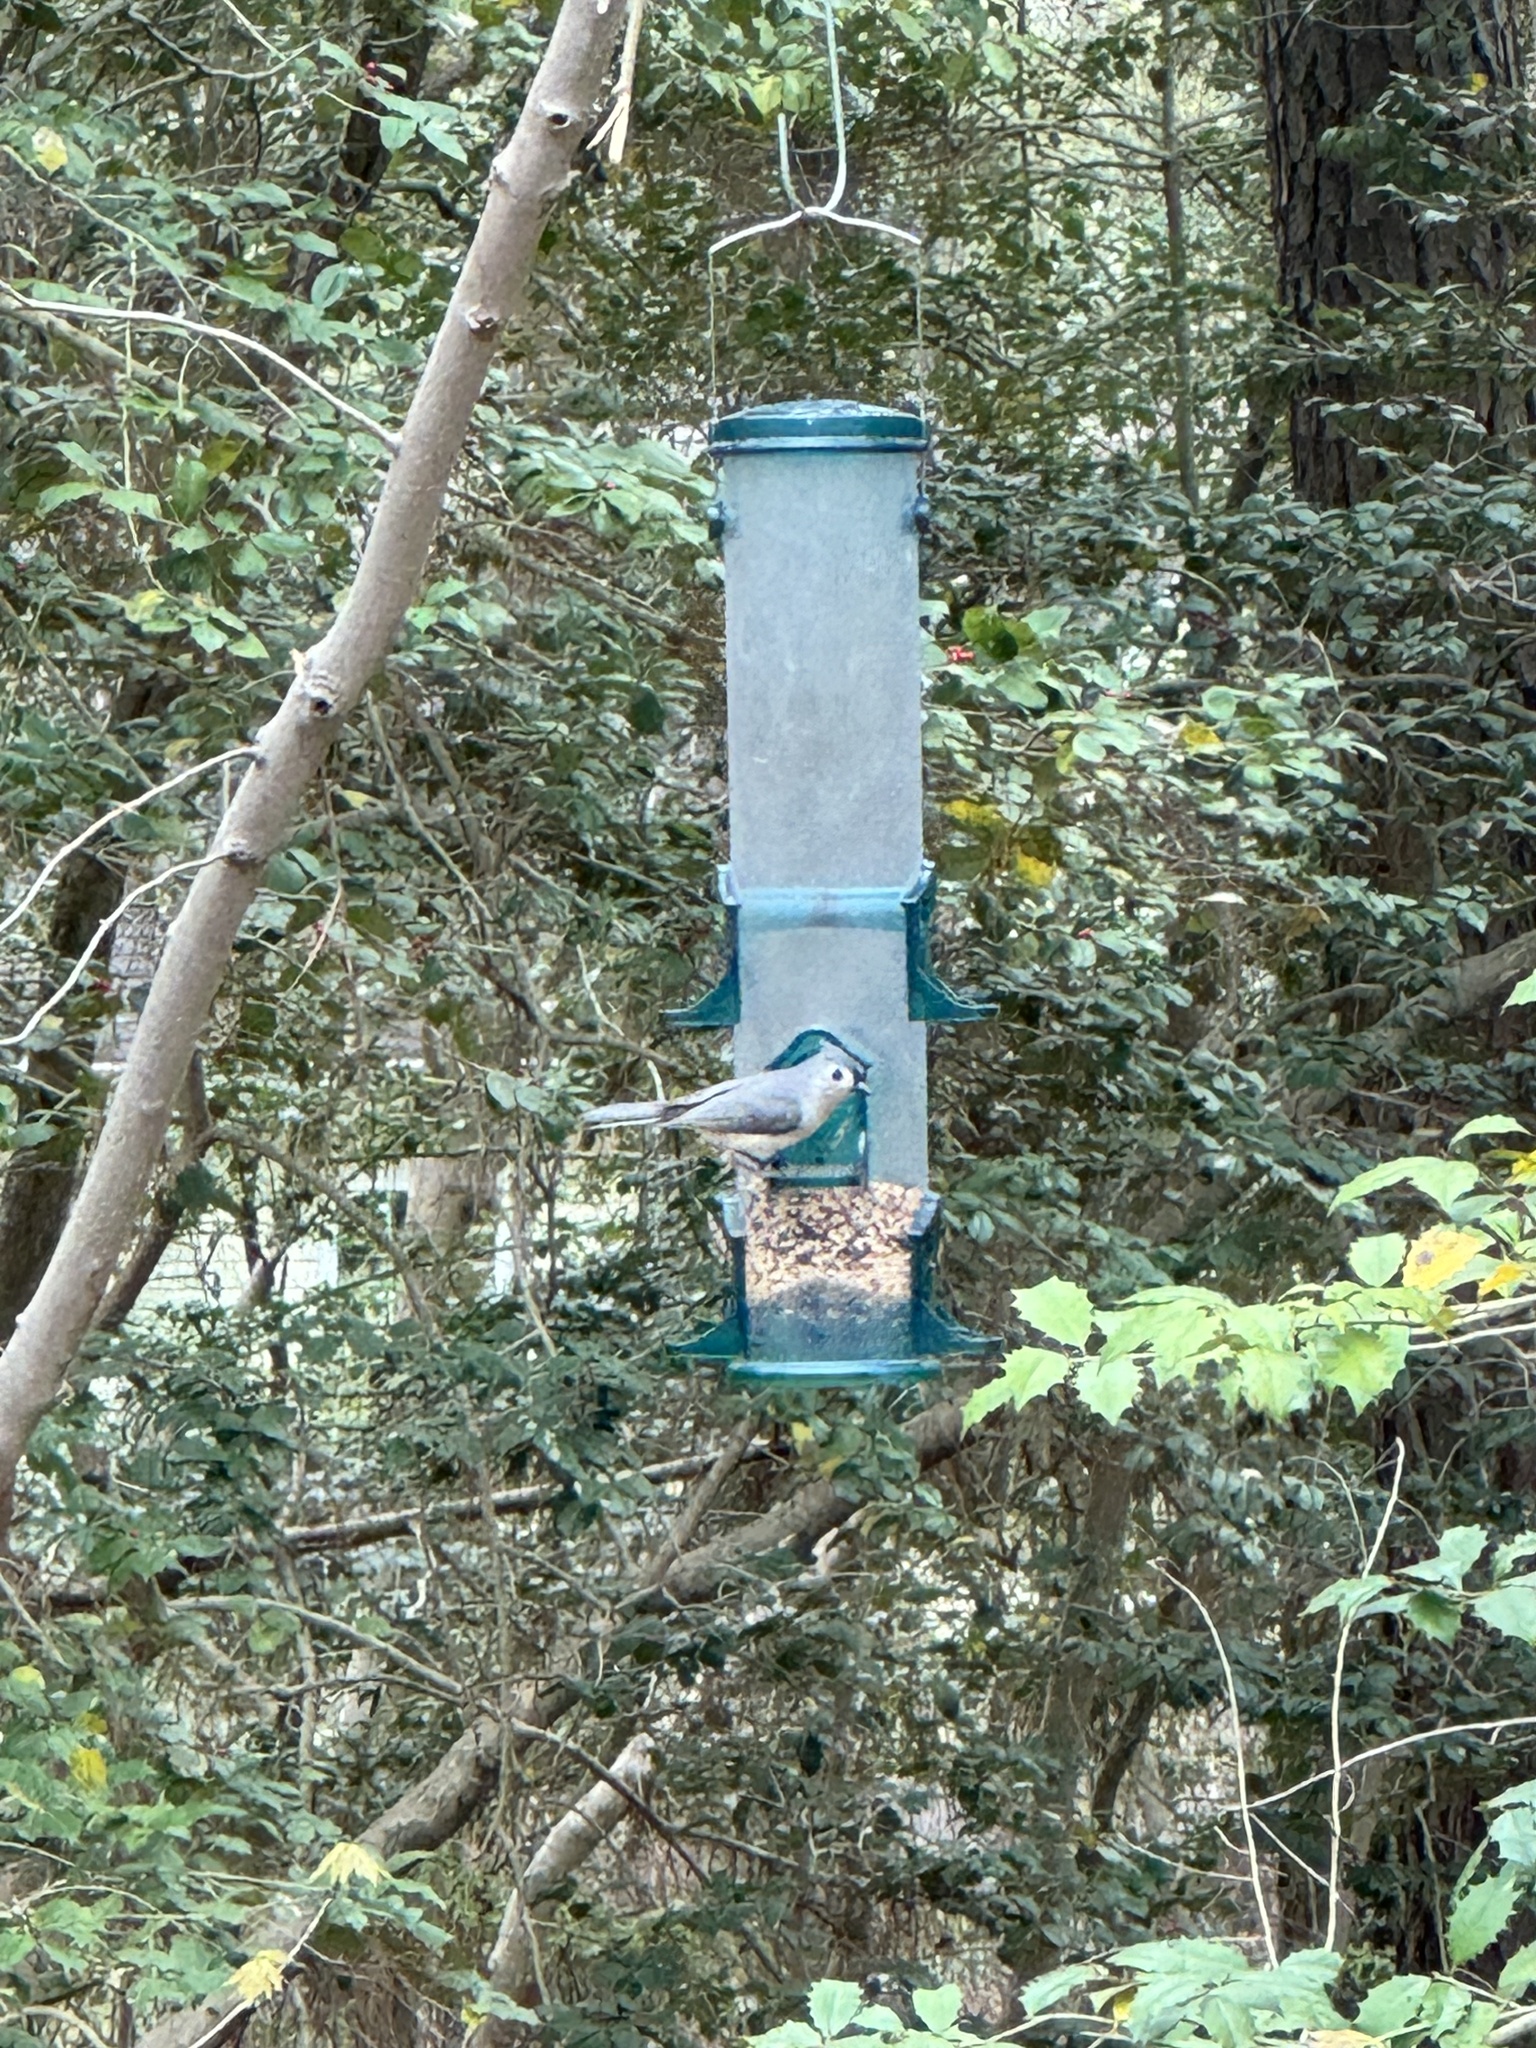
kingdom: Animalia
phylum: Chordata
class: Aves
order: Passeriformes
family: Paridae
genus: Baeolophus
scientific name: Baeolophus bicolor
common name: Tufted titmouse
